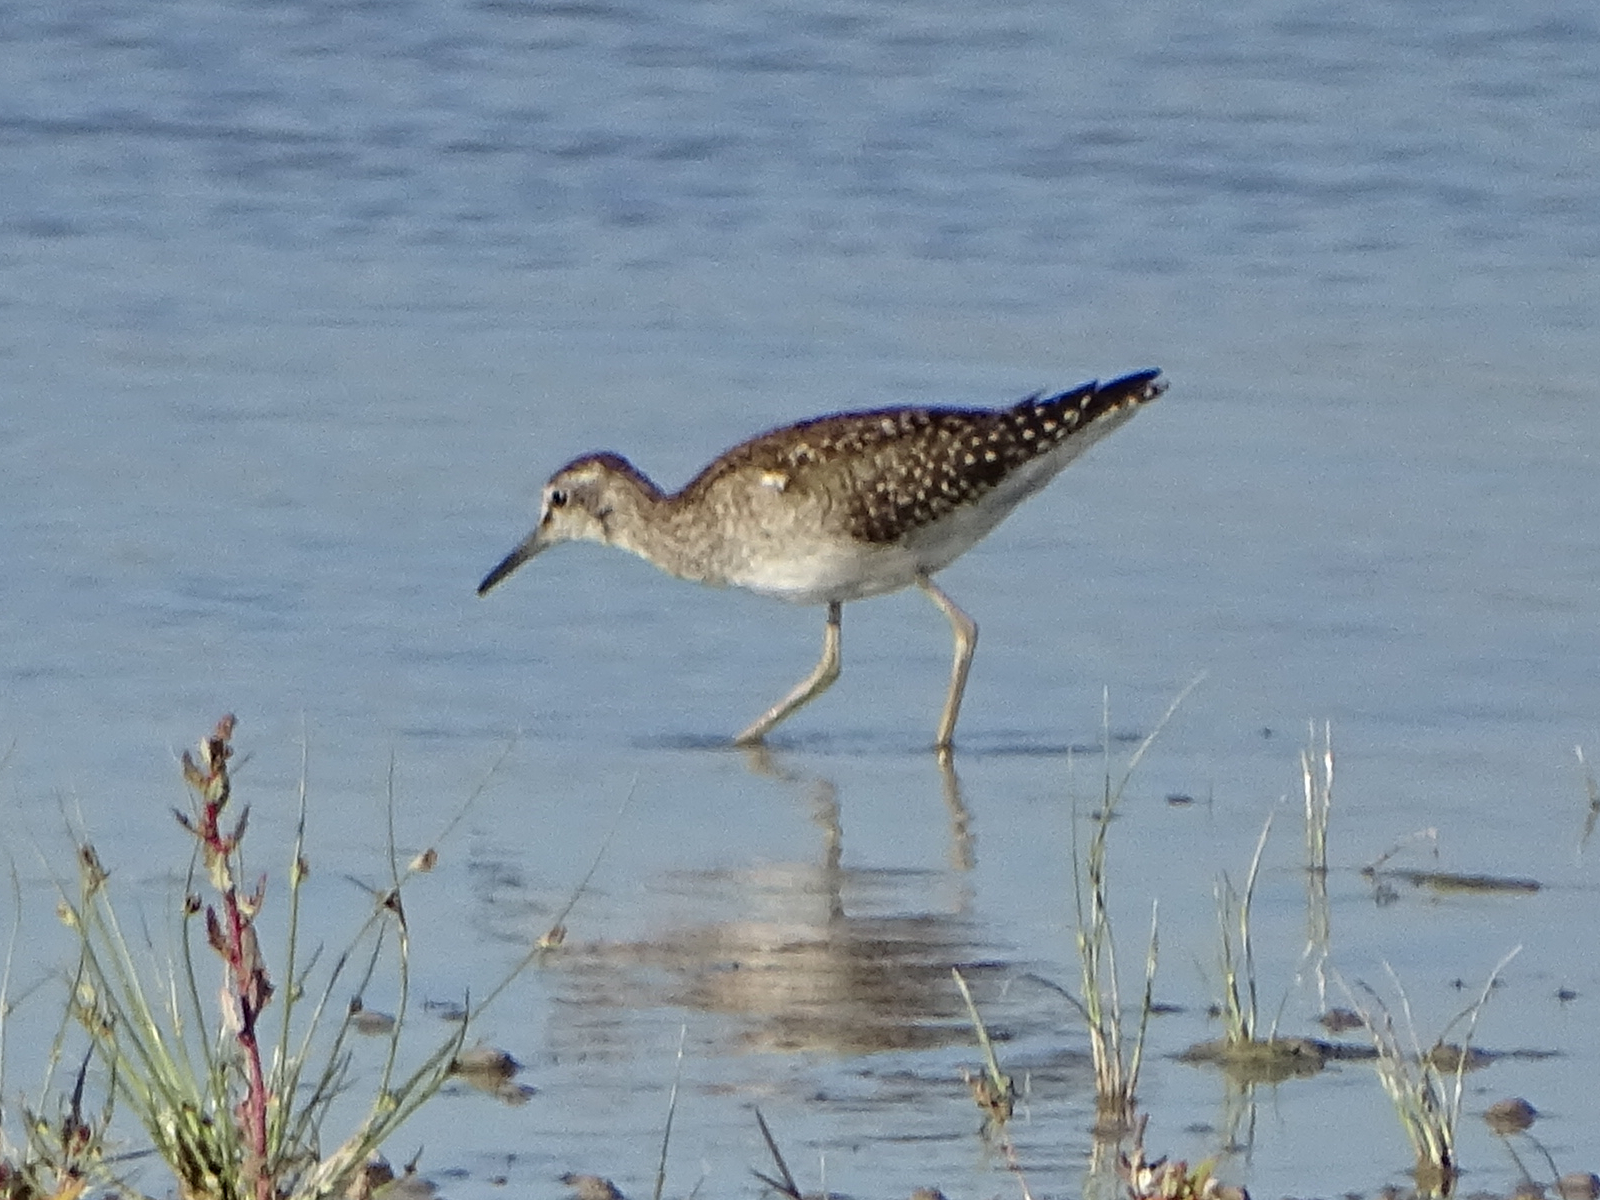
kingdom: Animalia
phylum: Chordata
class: Aves
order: Charadriiformes
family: Scolopacidae
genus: Tringa
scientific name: Tringa glareola
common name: Wood sandpiper
